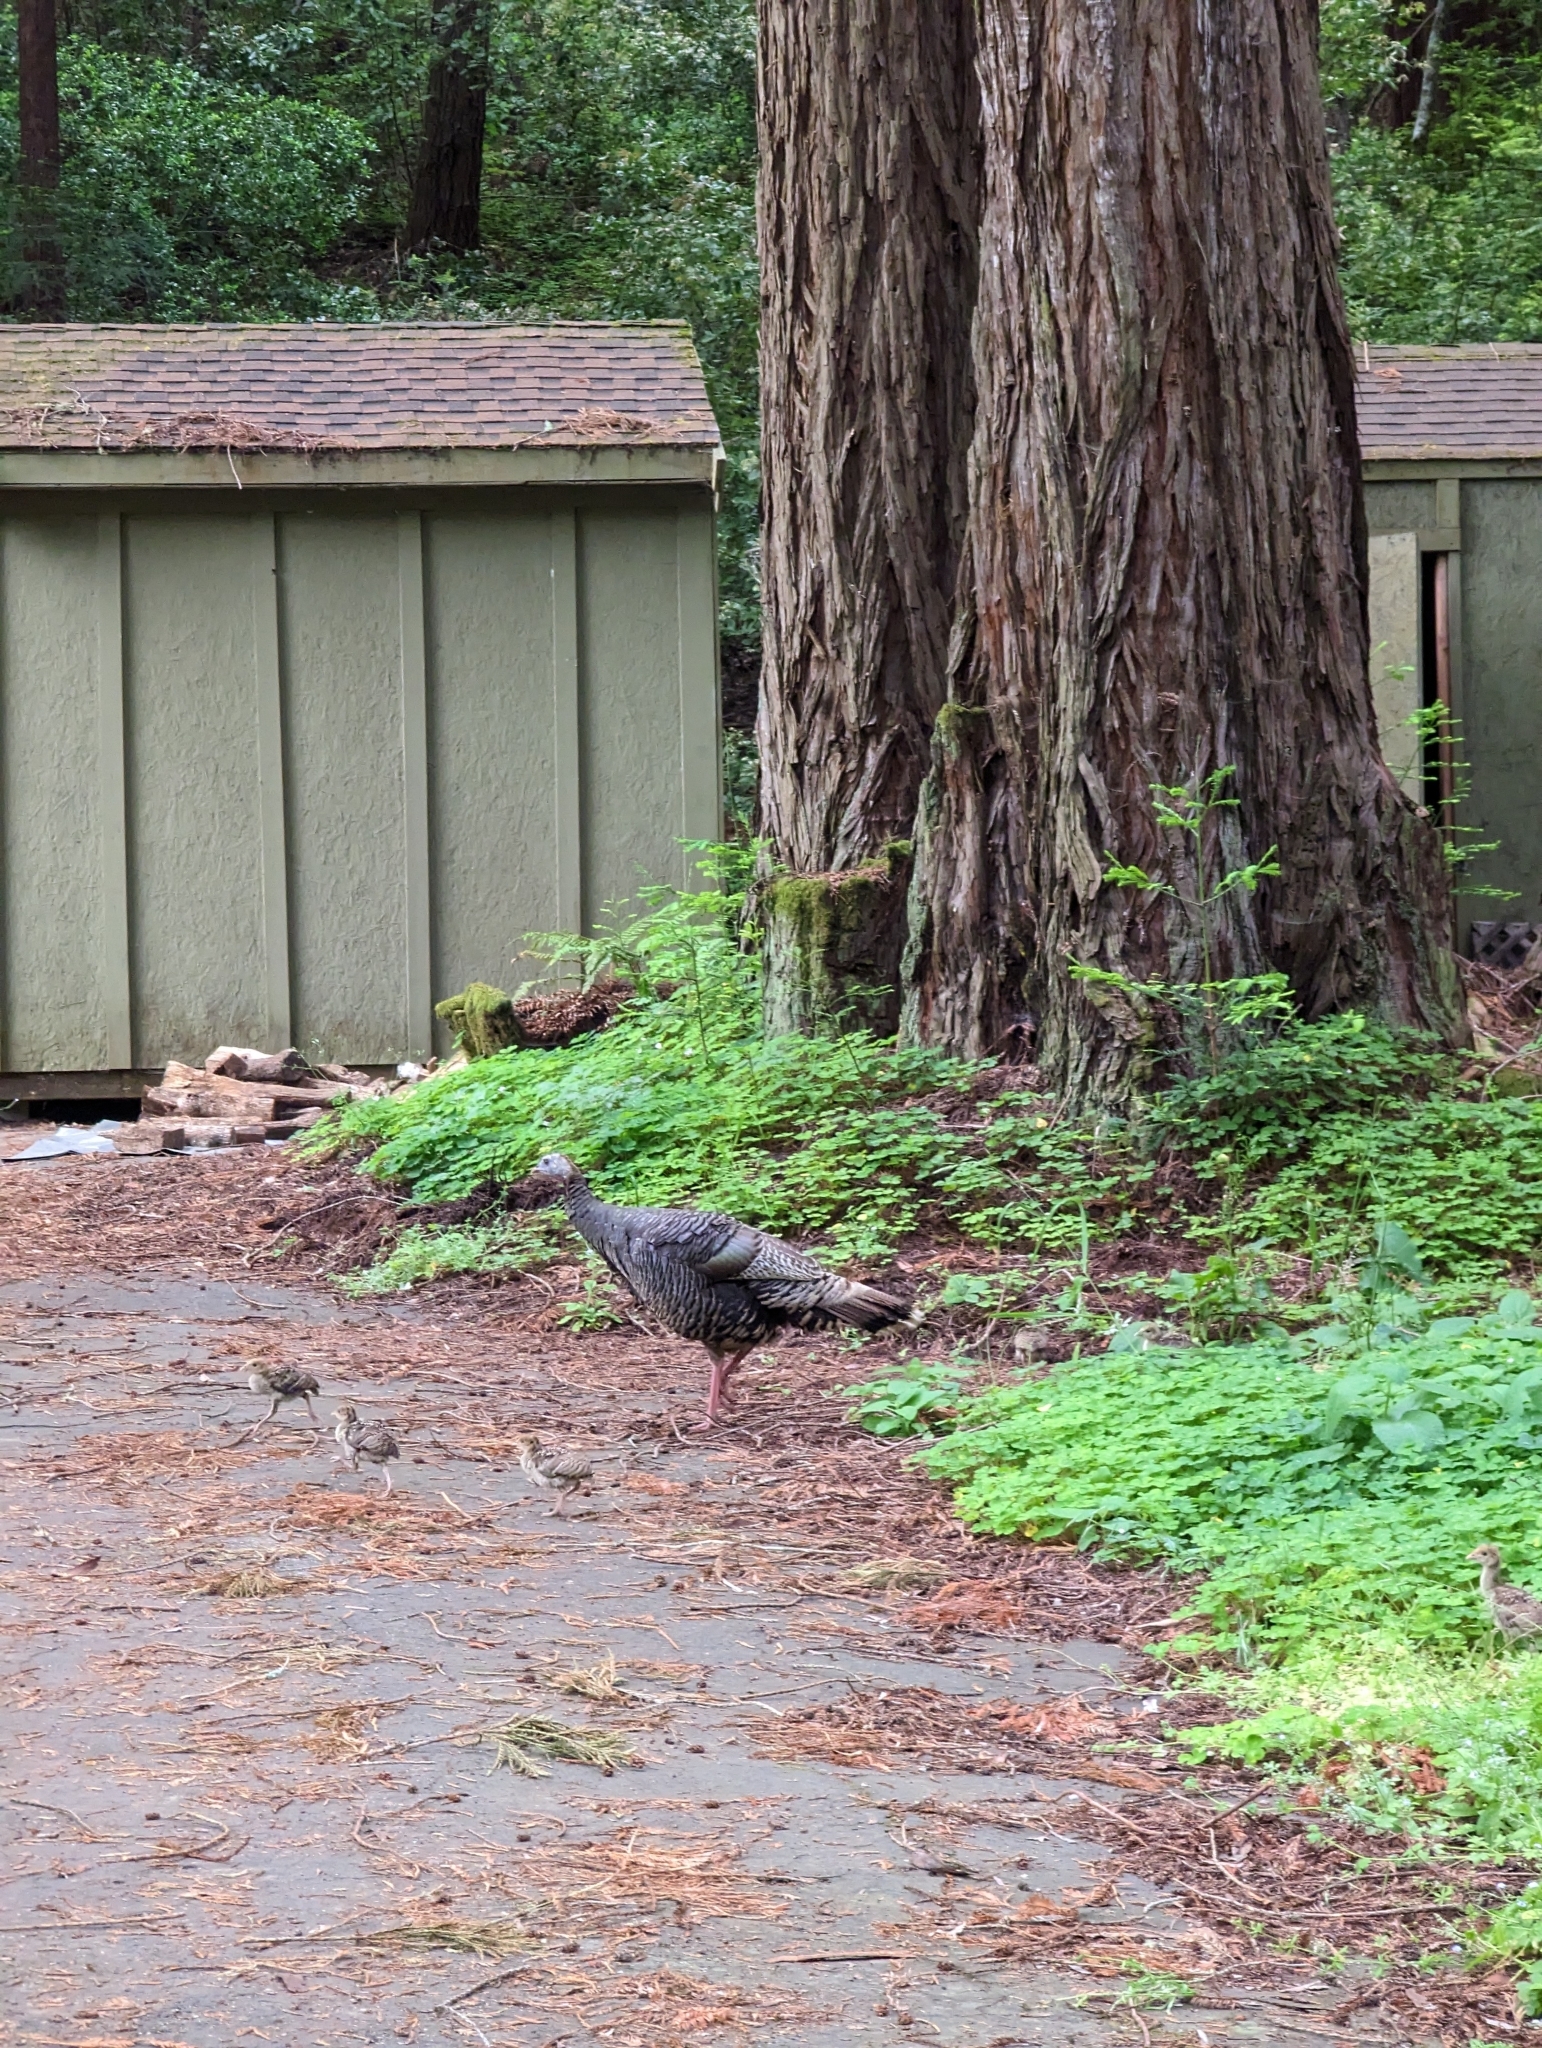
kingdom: Animalia
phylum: Chordata
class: Aves
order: Galliformes
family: Phasianidae
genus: Meleagris
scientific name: Meleagris gallopavo
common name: Wild turkey
